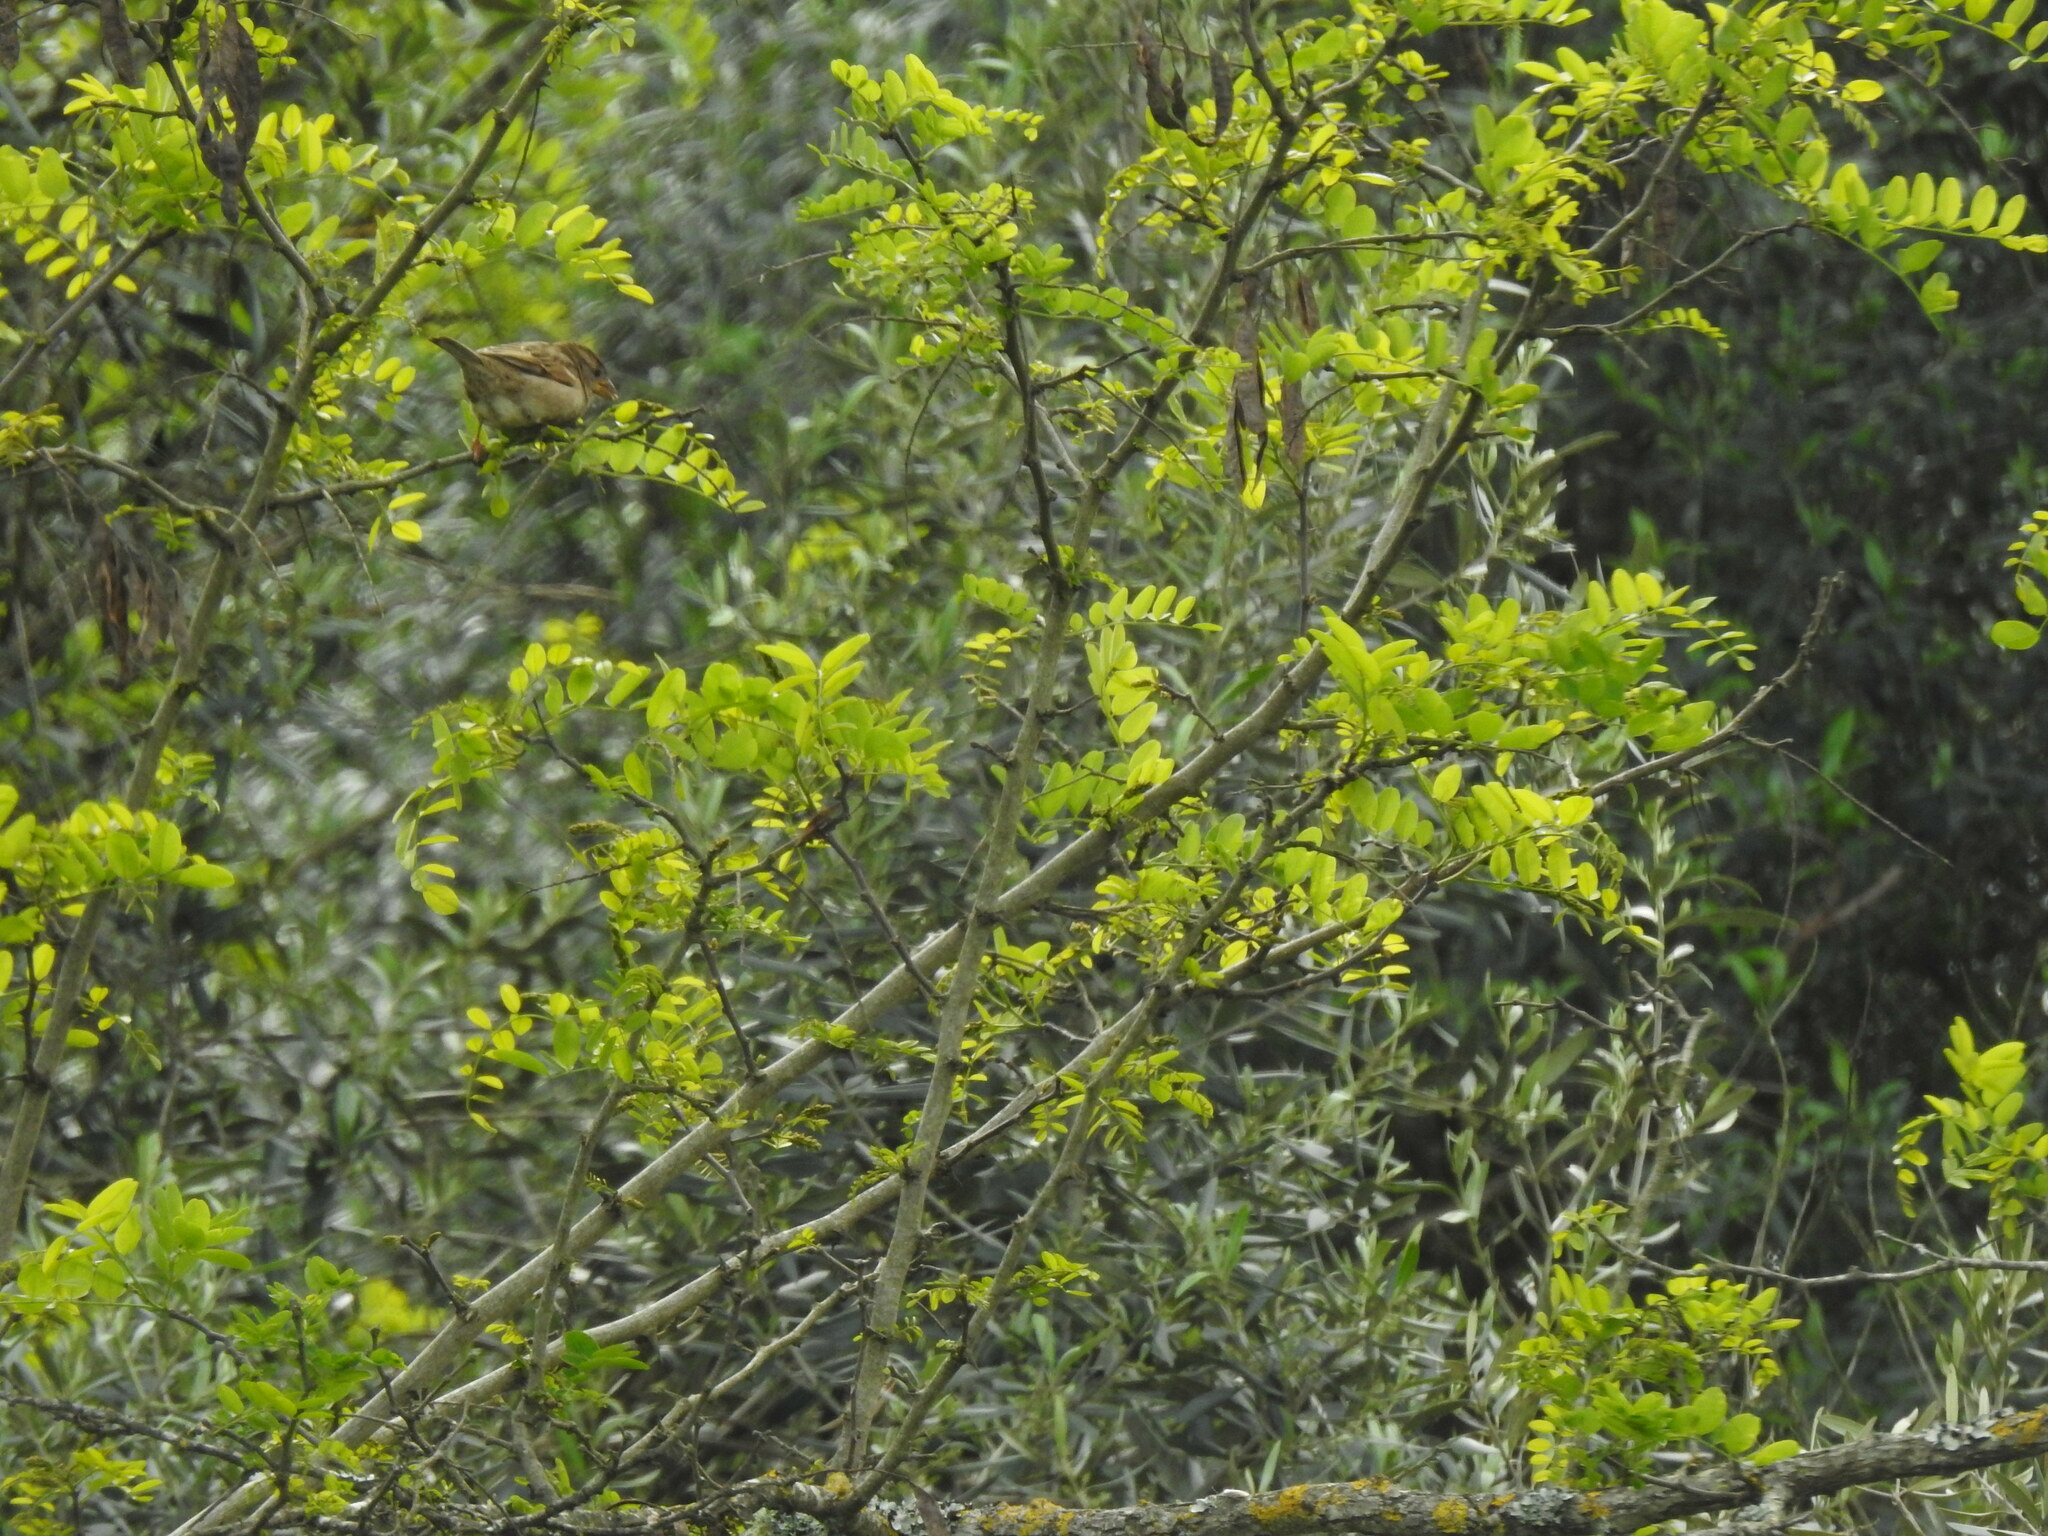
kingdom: Plantae
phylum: Tracheophyta
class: Magnoliopsida
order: Fabales
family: Fabaceae
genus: Robinia
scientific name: Robinia pseudoacacia
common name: Black locust
